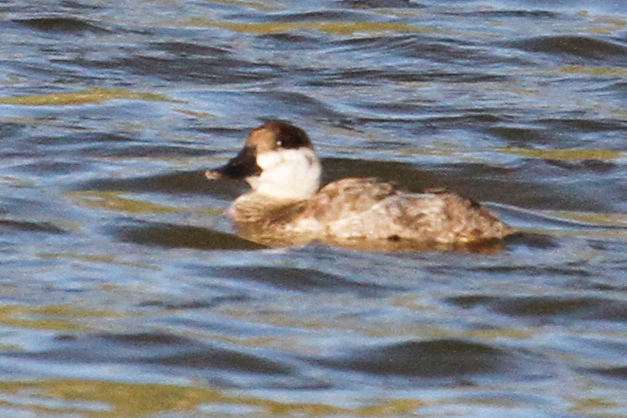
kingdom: Animalia
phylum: Chordata
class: Aves
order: Anseriformes
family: Anatidae
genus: Oxyura
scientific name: Oxyura jamaicensis
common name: Ruddy duck
